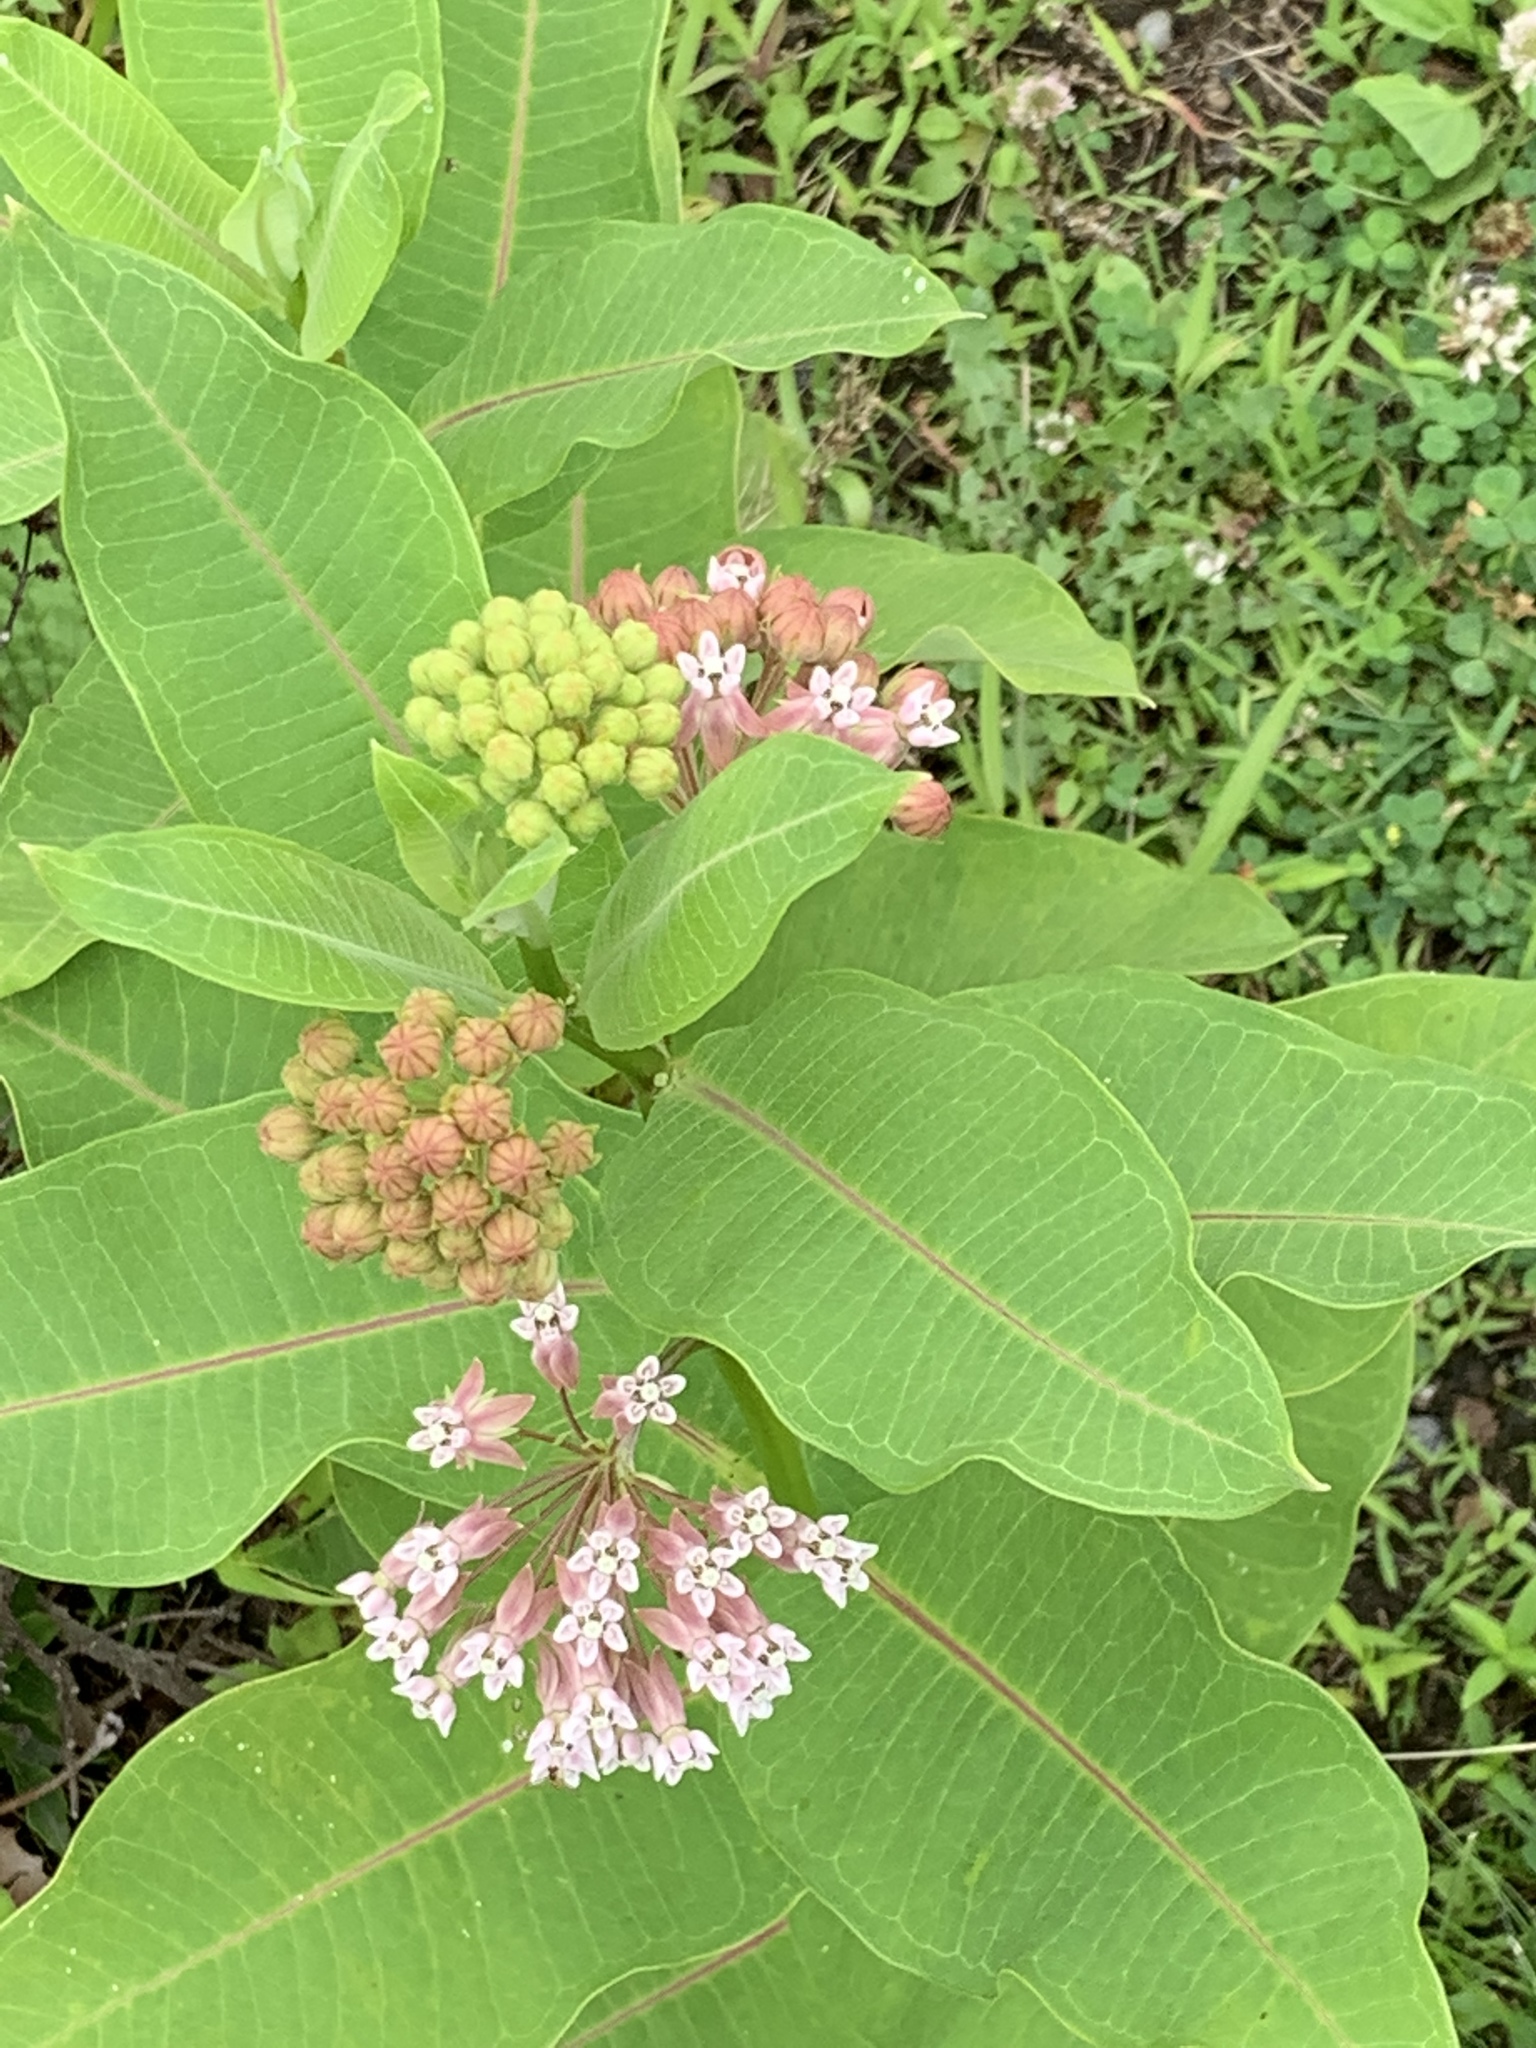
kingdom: Plantae
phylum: Tracheophyta
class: Magnoliopsida
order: Gentianales
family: Apocynaceae
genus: Asclepias
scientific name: Asclepias syriaca
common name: Common milkweed
